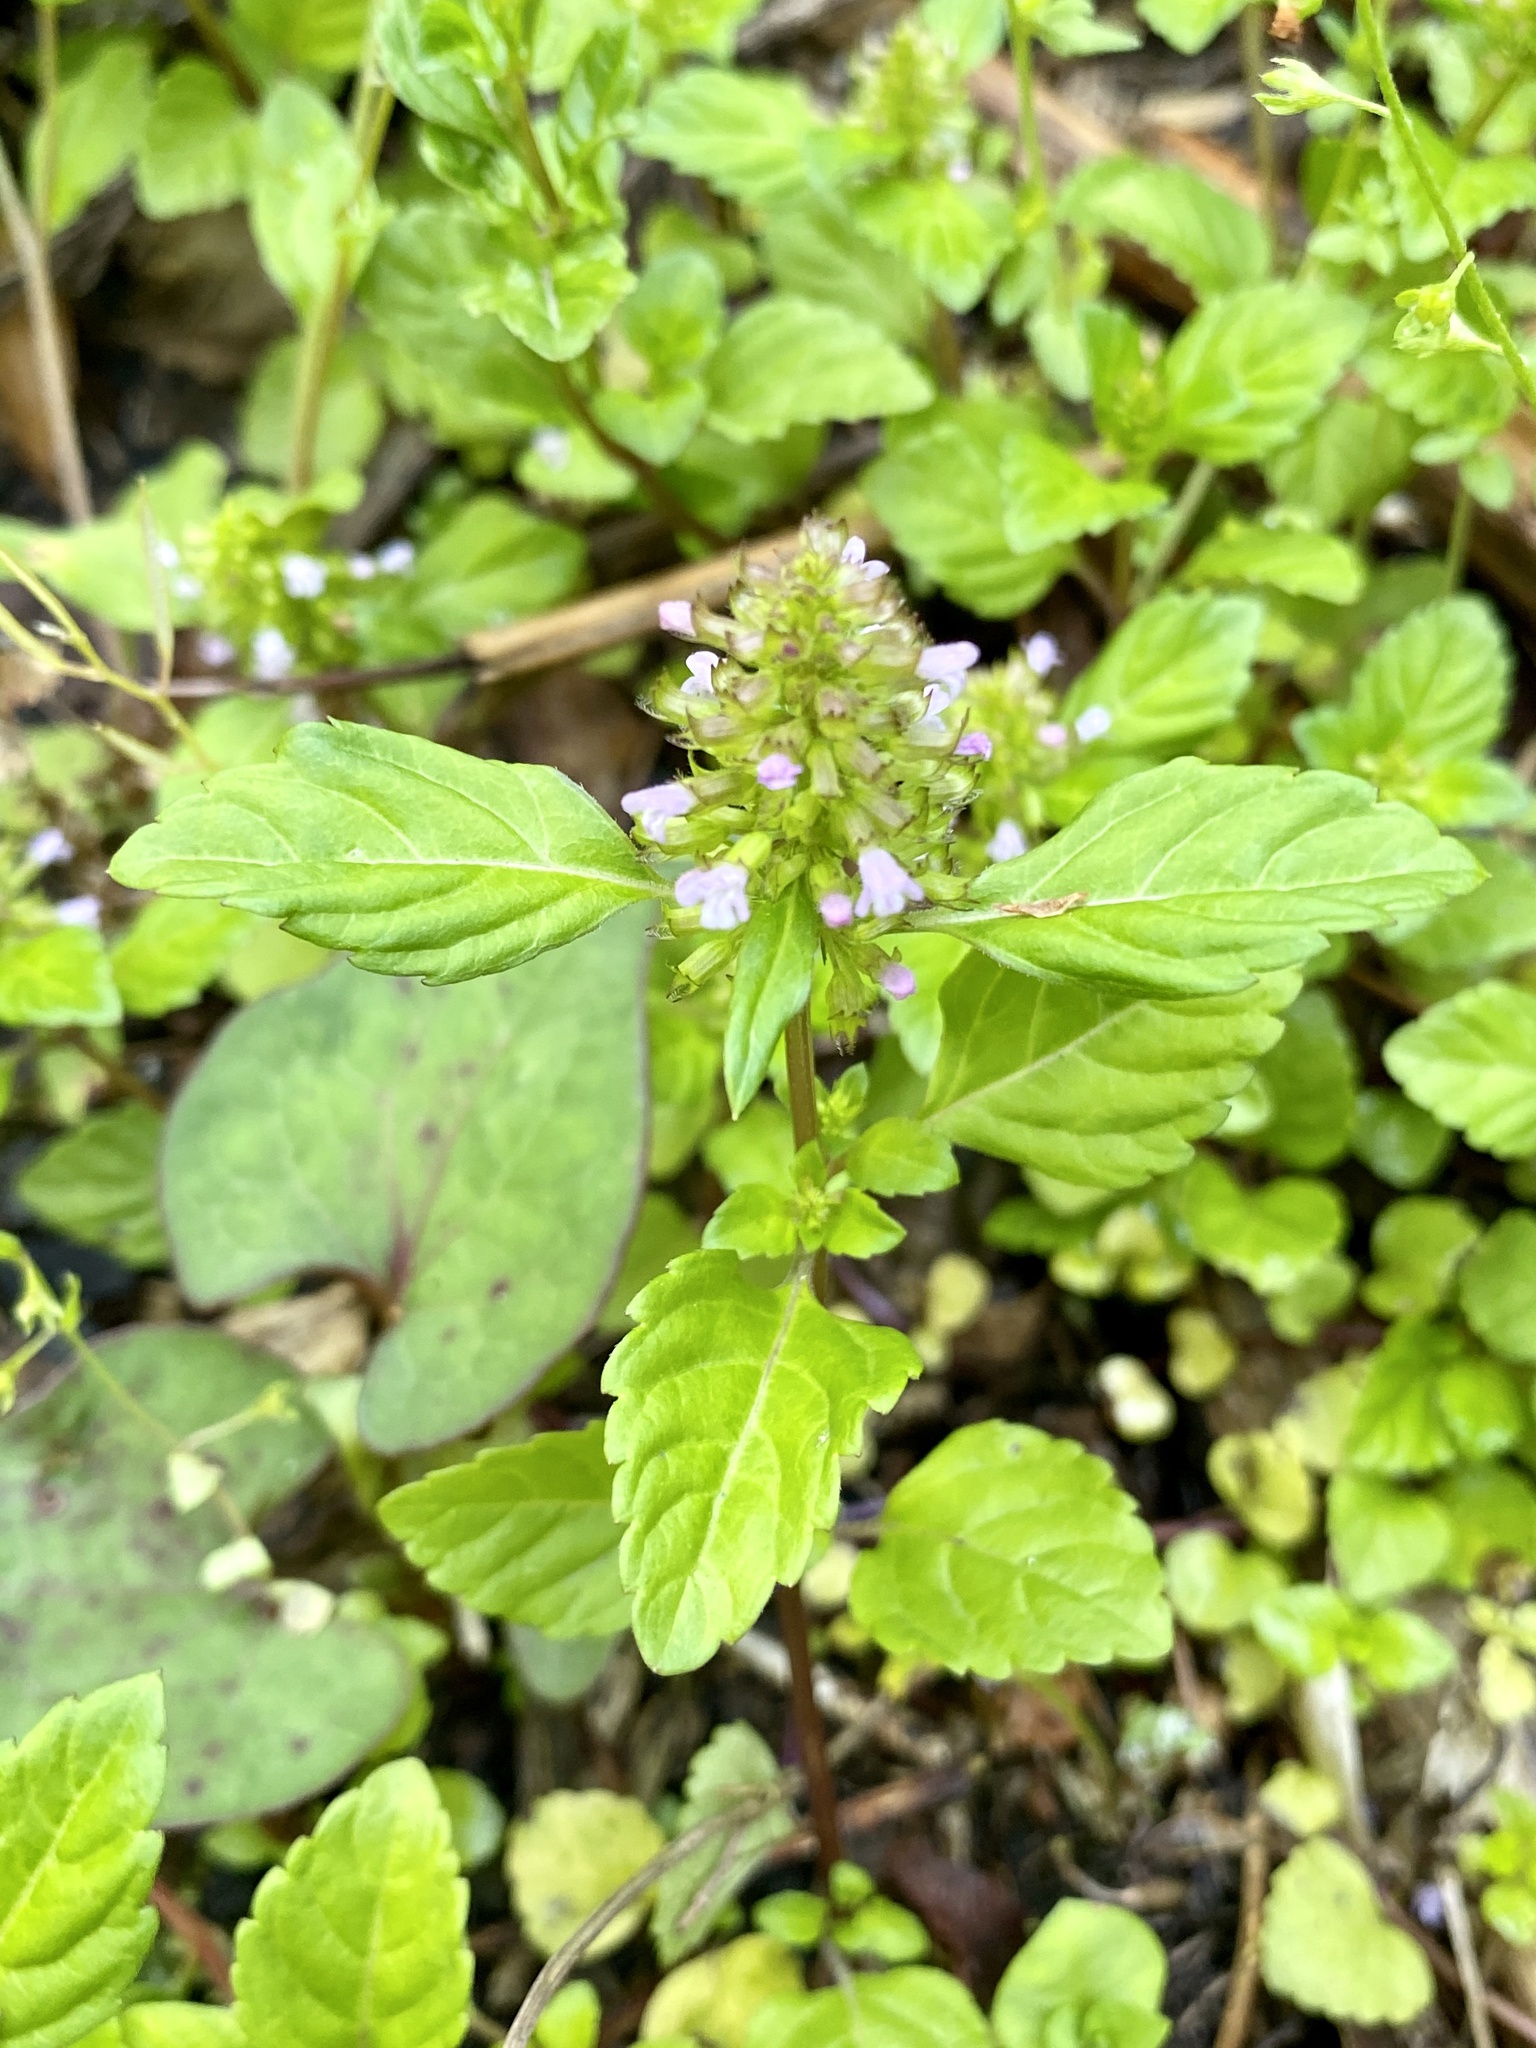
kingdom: Plantae
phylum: Tracheophyta
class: Magnoliopsida
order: Lamiales
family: Lamiaceae
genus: Clinopodium
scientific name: Clinopodium gracile
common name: Slender wild basil
